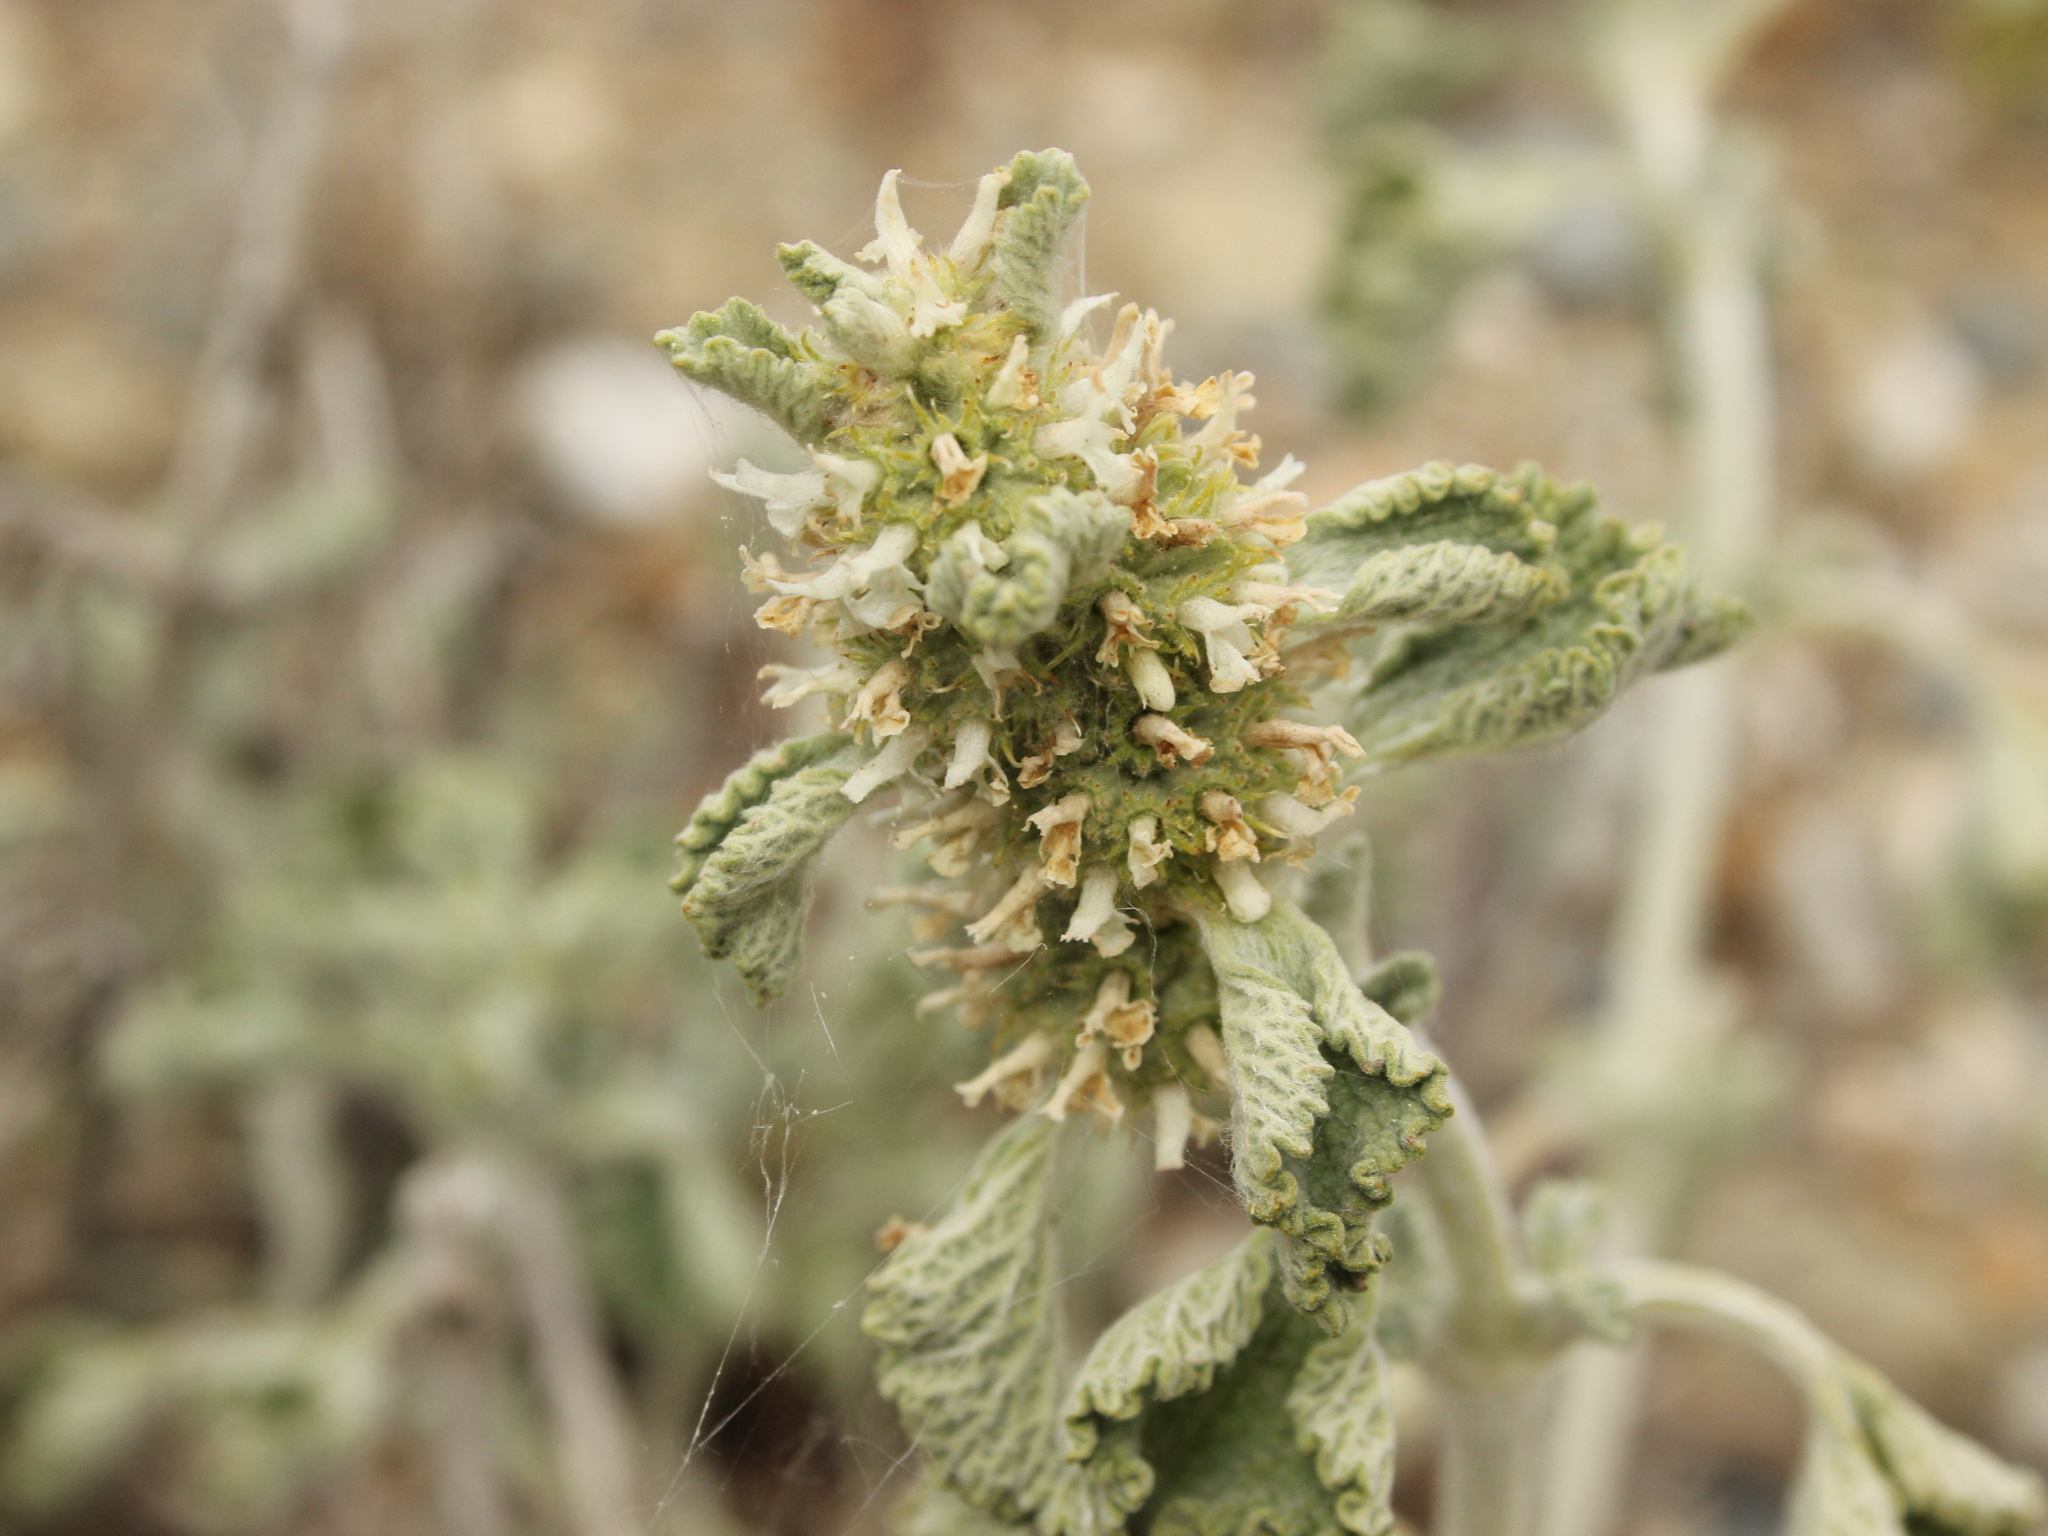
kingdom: Plantae
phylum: Tracheophyta
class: Magnoliopsida
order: Lamiales
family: Lamiaceae
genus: Marrubium
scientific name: Marrubium vulgare
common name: Horehound
